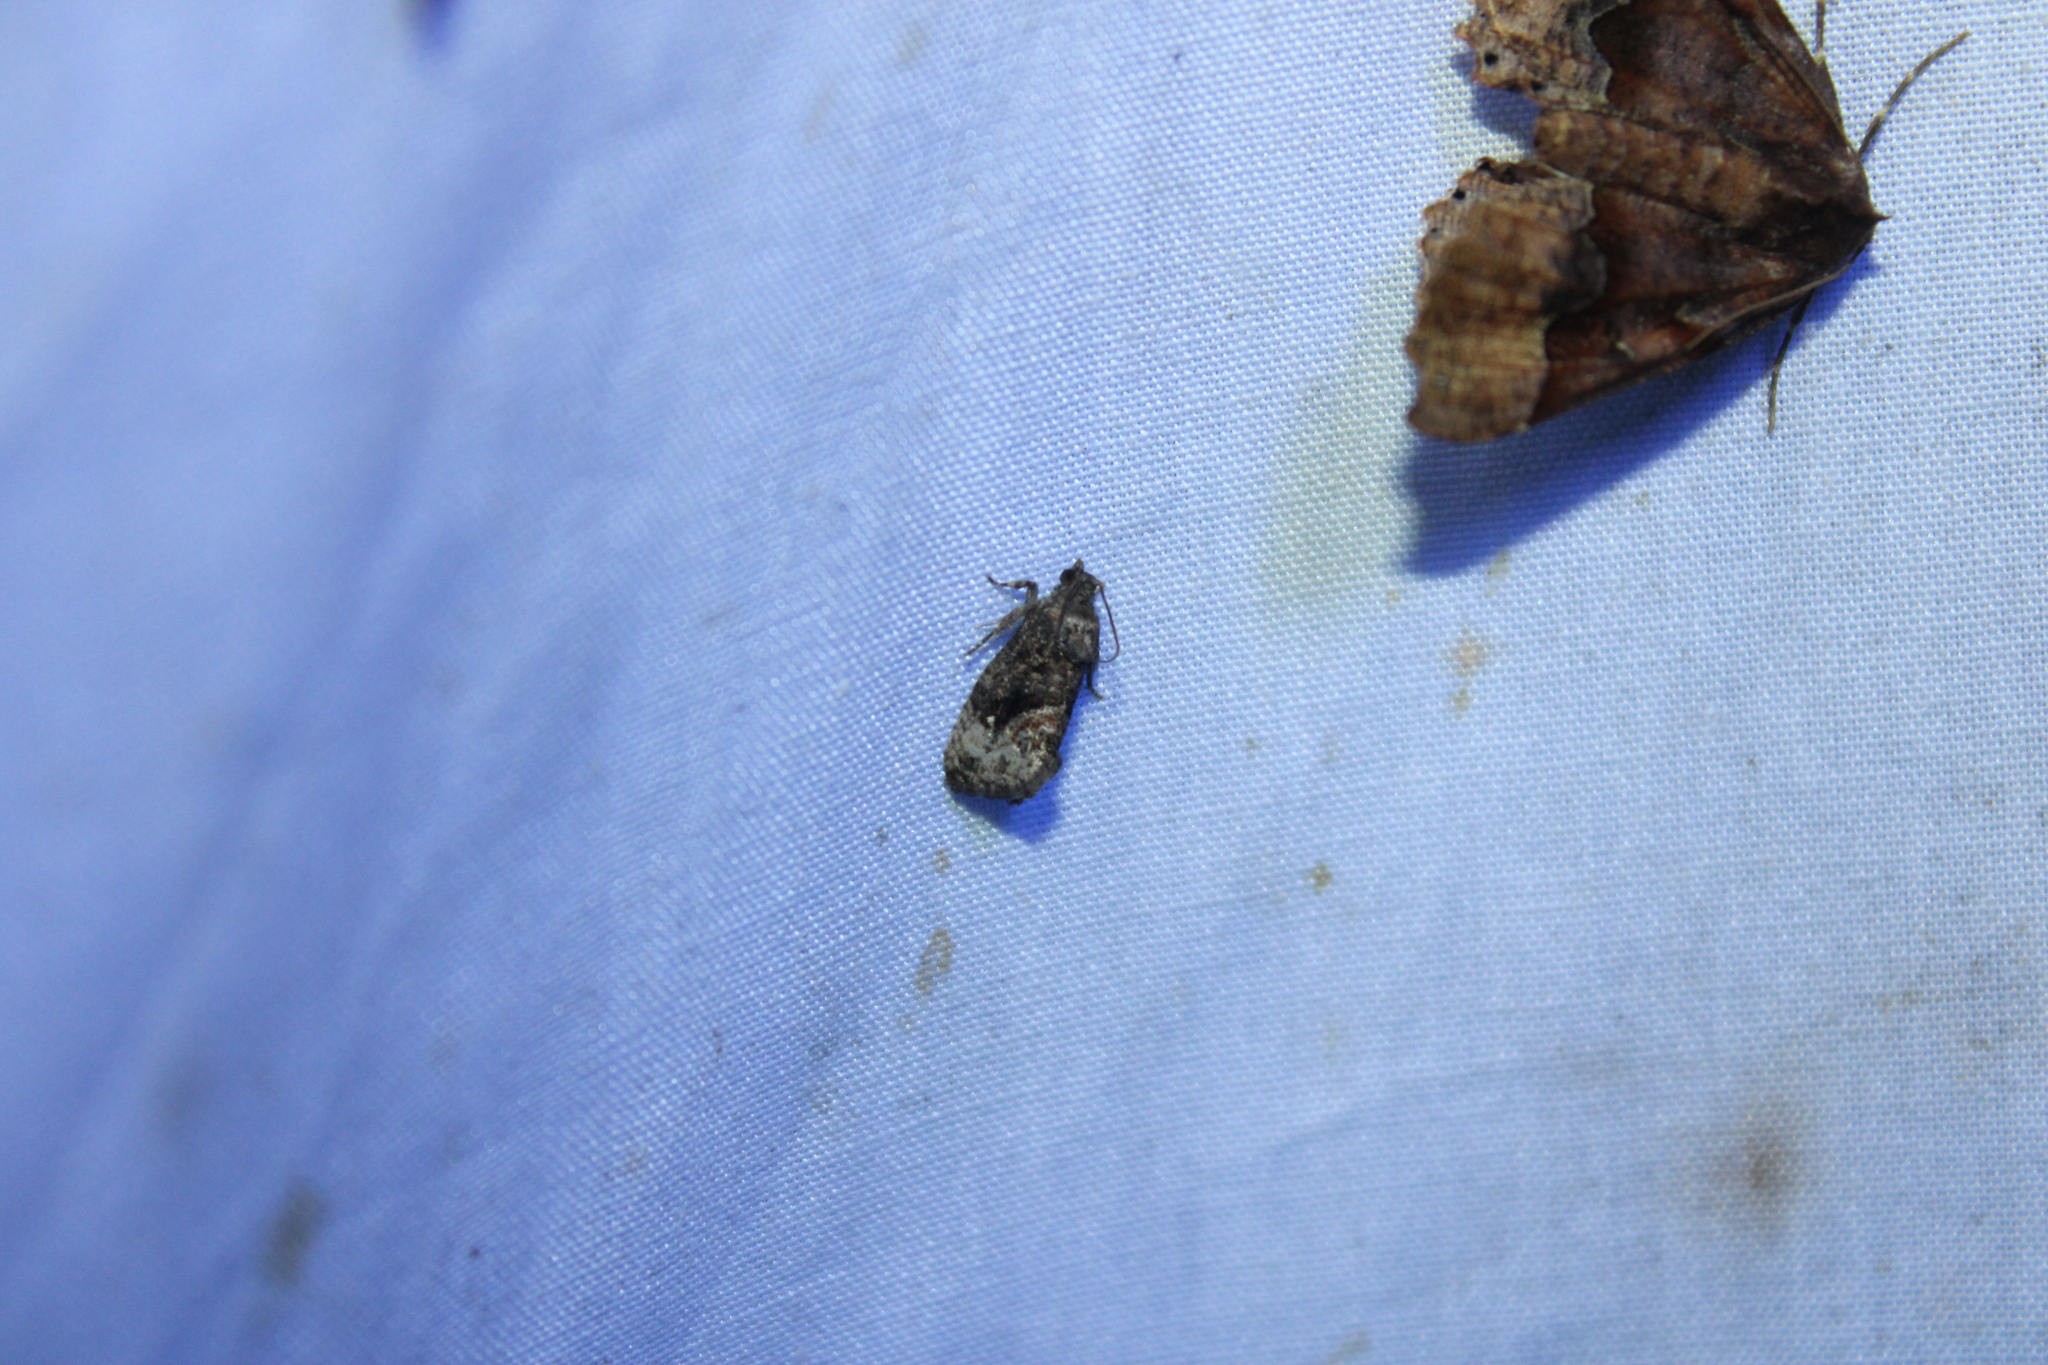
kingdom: Animalia
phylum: Arthropoda
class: Insecta
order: Lepidoptera
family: Tortricidae
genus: Gymnandrosoma
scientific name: Gymnandrosoma punctidiscanum
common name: Dotted ecdytolopha moth
